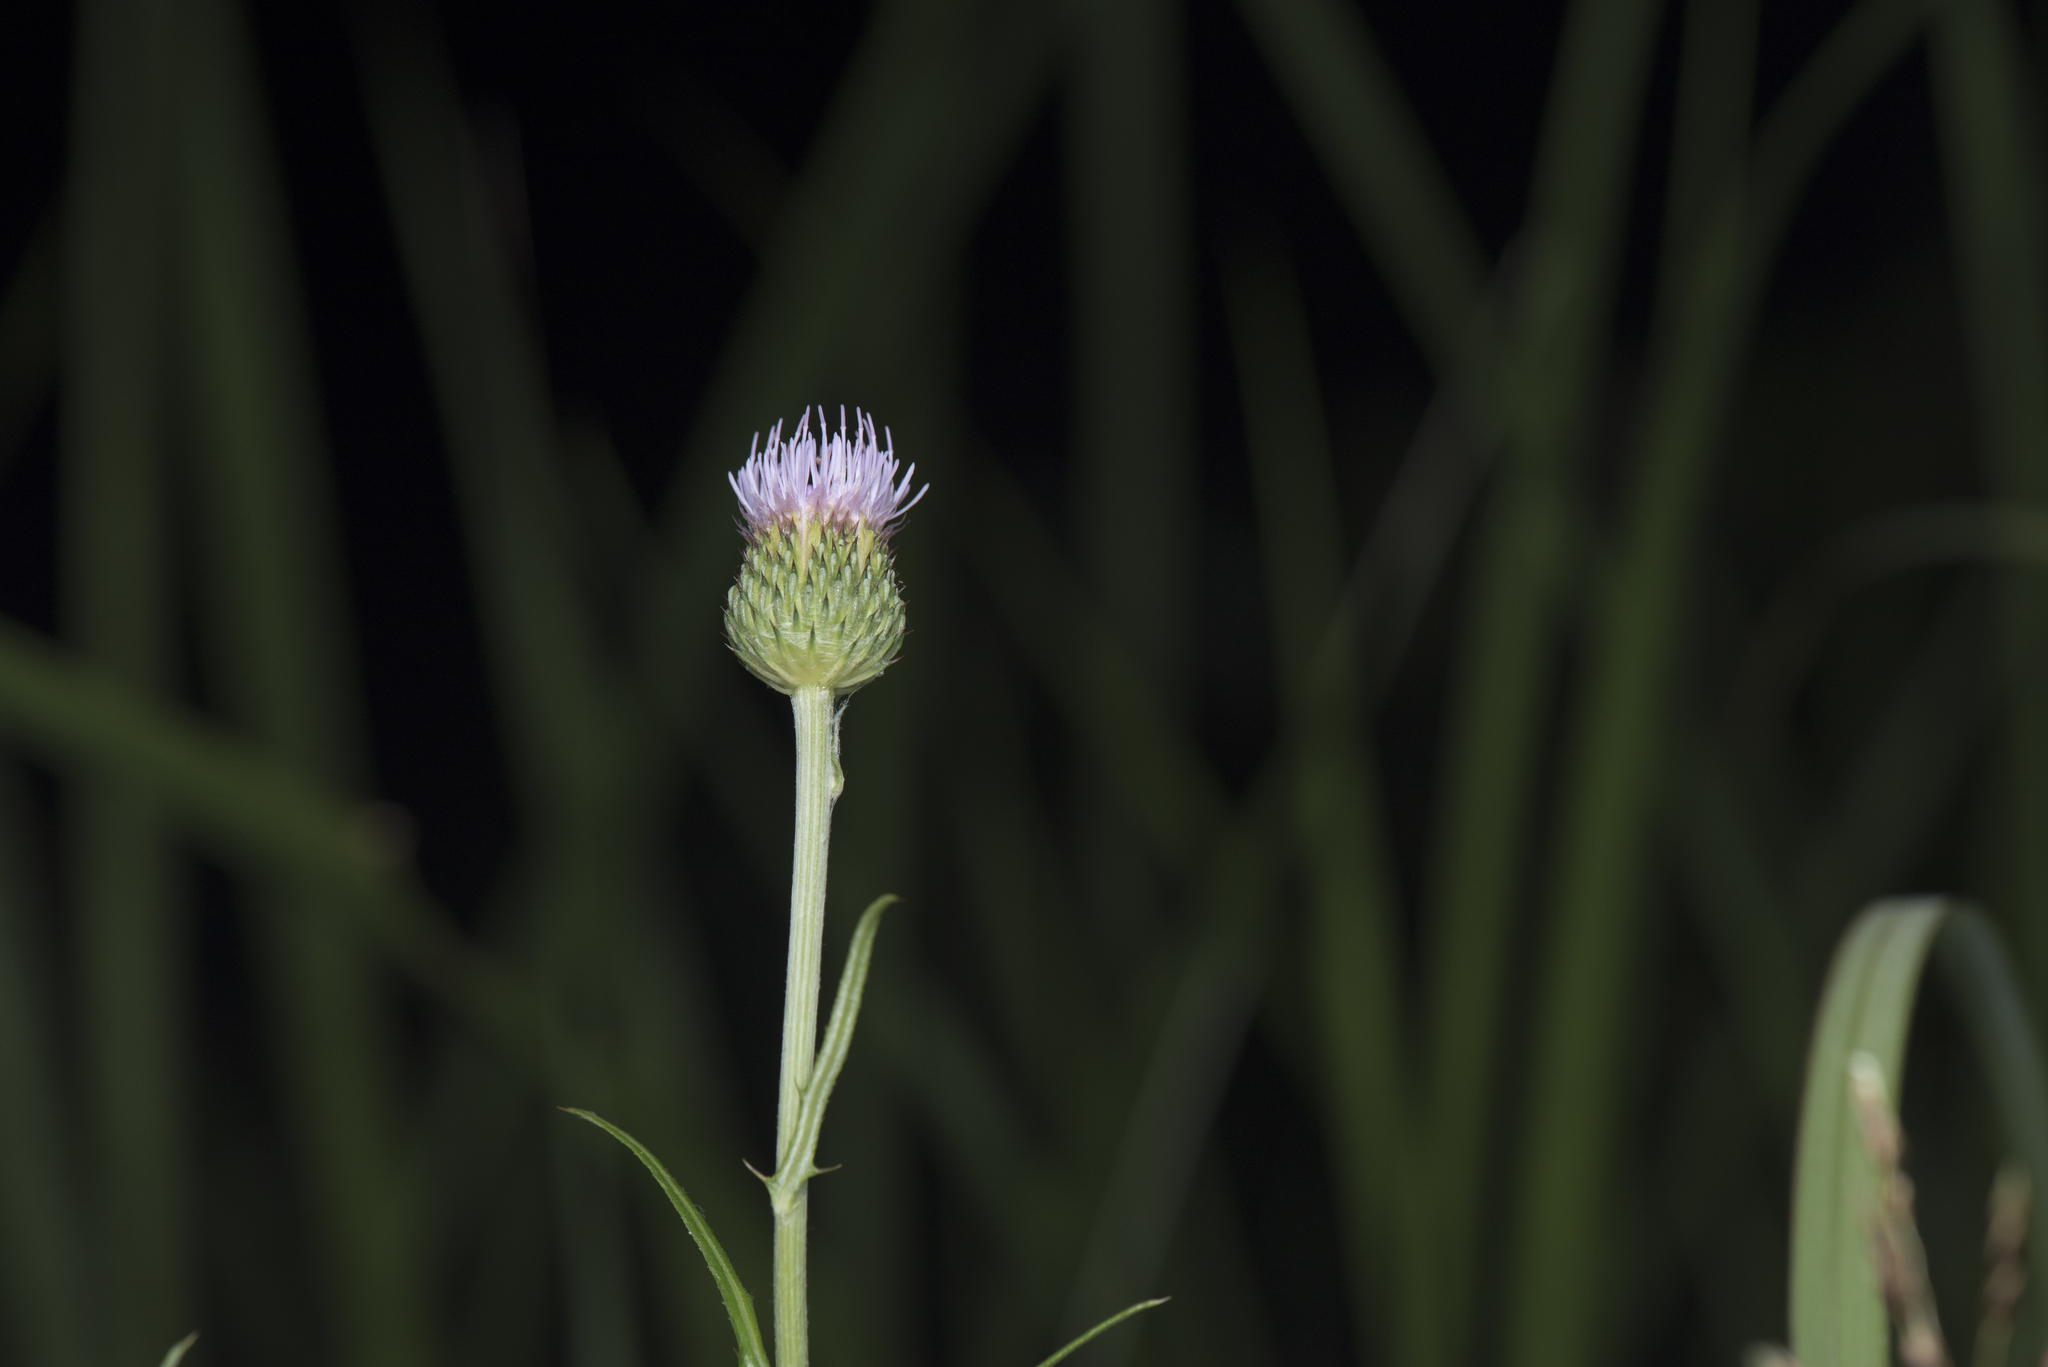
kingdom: Plantae
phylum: Tracheophyta
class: Magnoliopsida
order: Asterales
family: Asteraceae
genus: Cirsium
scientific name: Cirsium lineare
